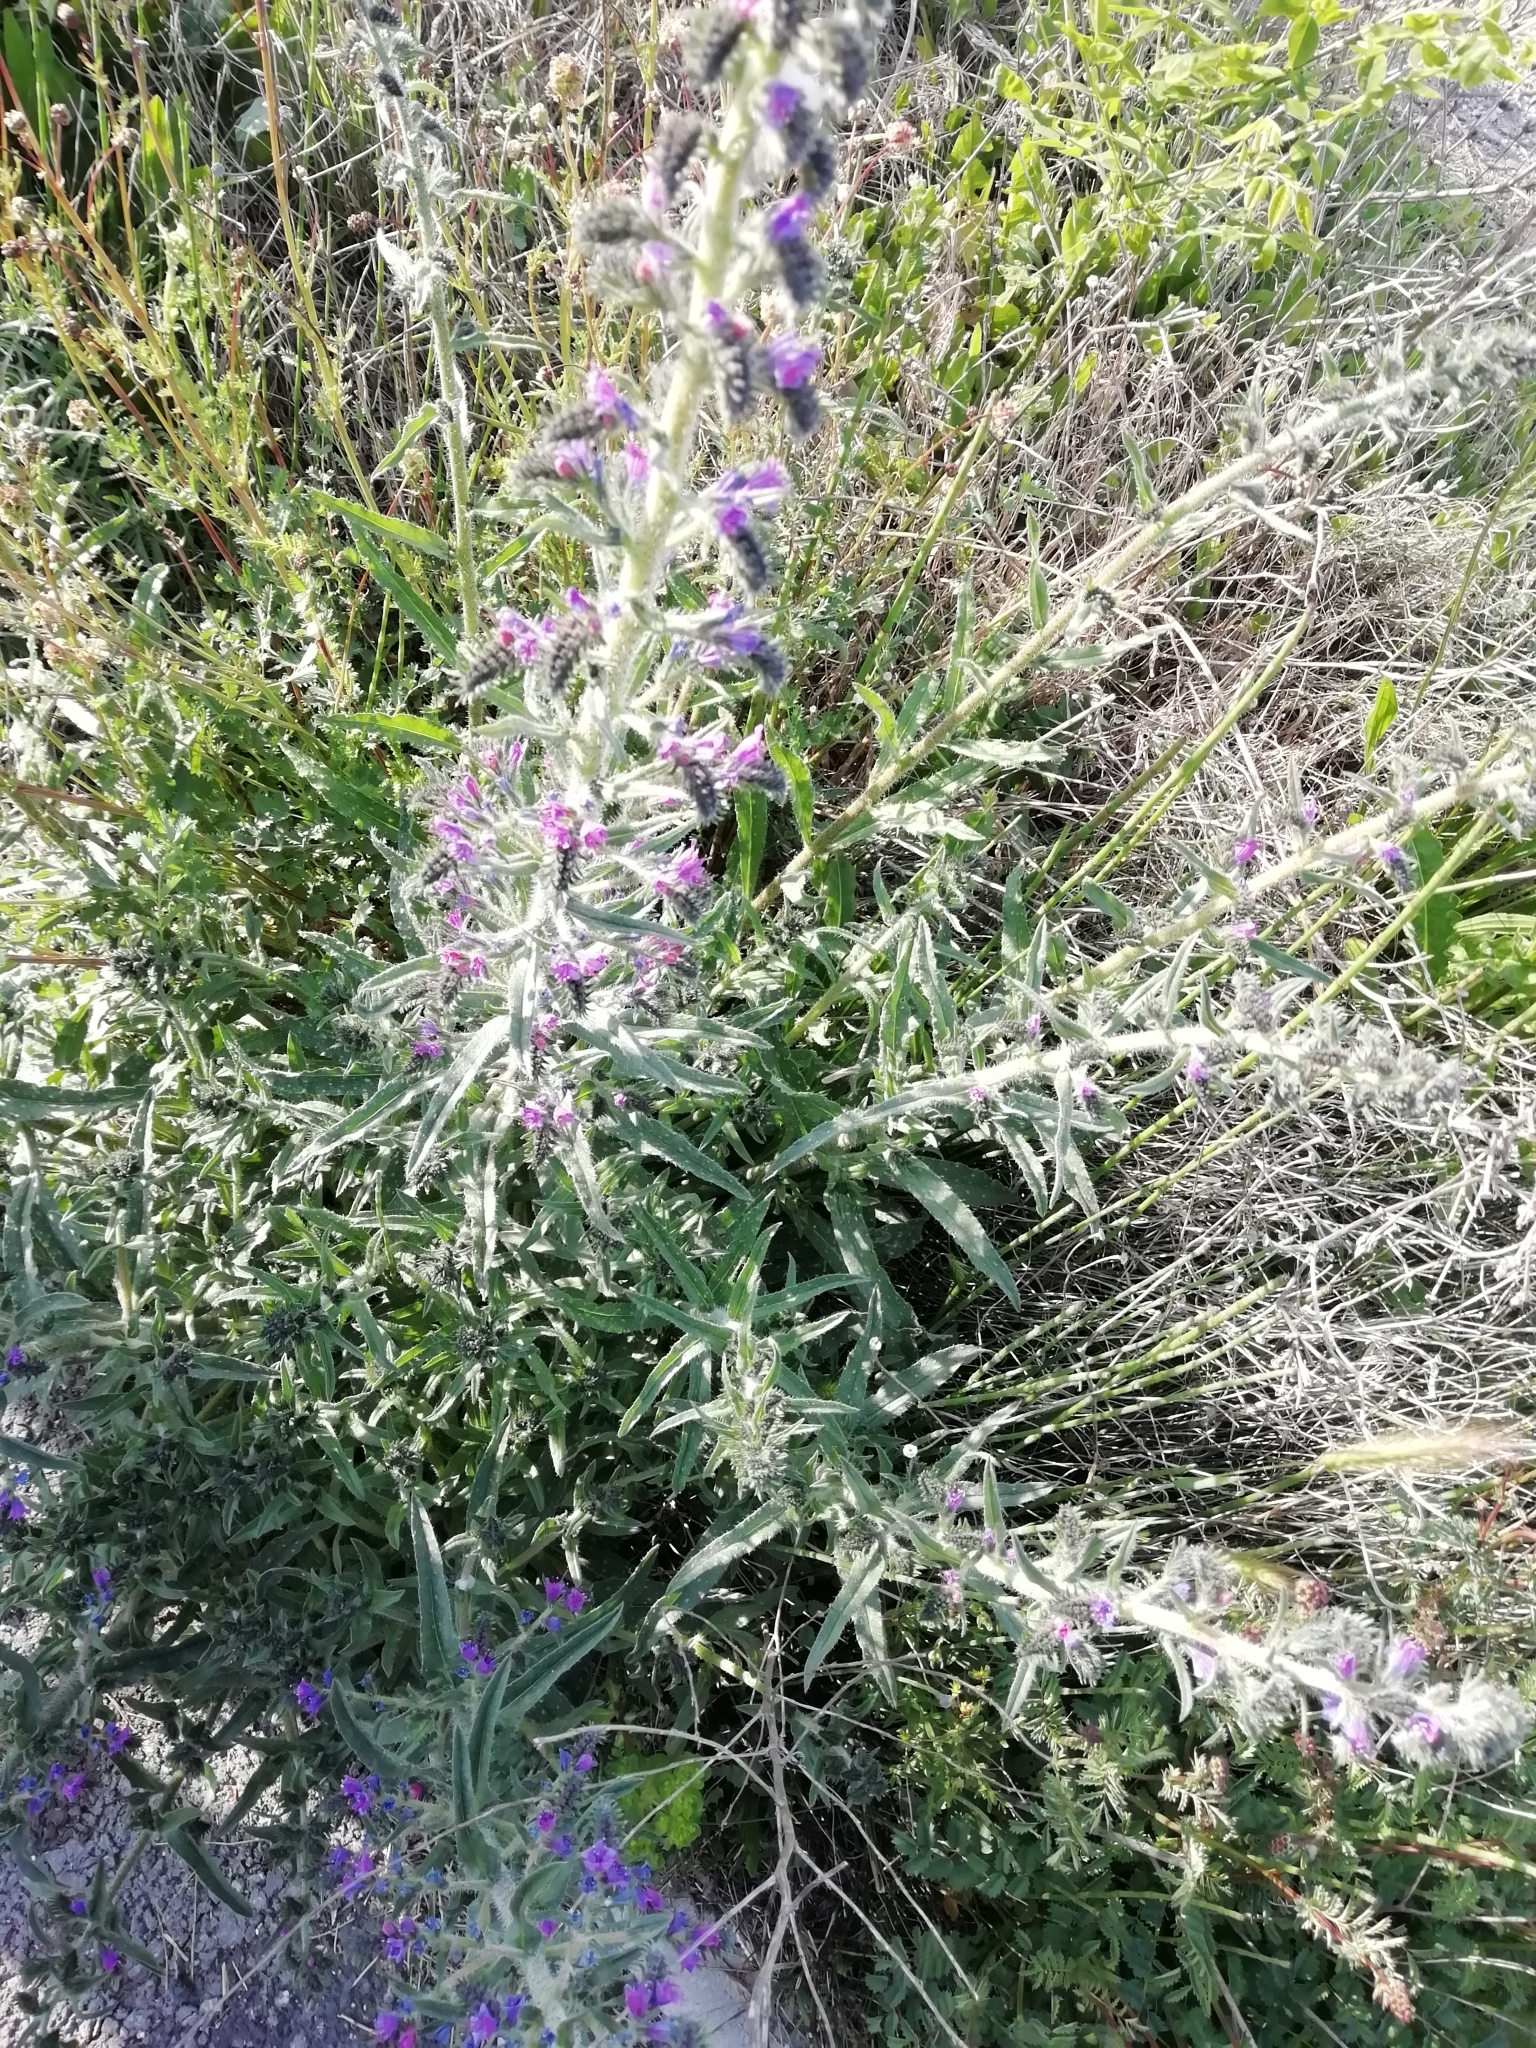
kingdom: Plantae
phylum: Tracheophyta
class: Magnoliopsida
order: Boraginales
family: Boraginaceae
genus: Echium
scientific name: Echium vulgare
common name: Common viper's bugloss
